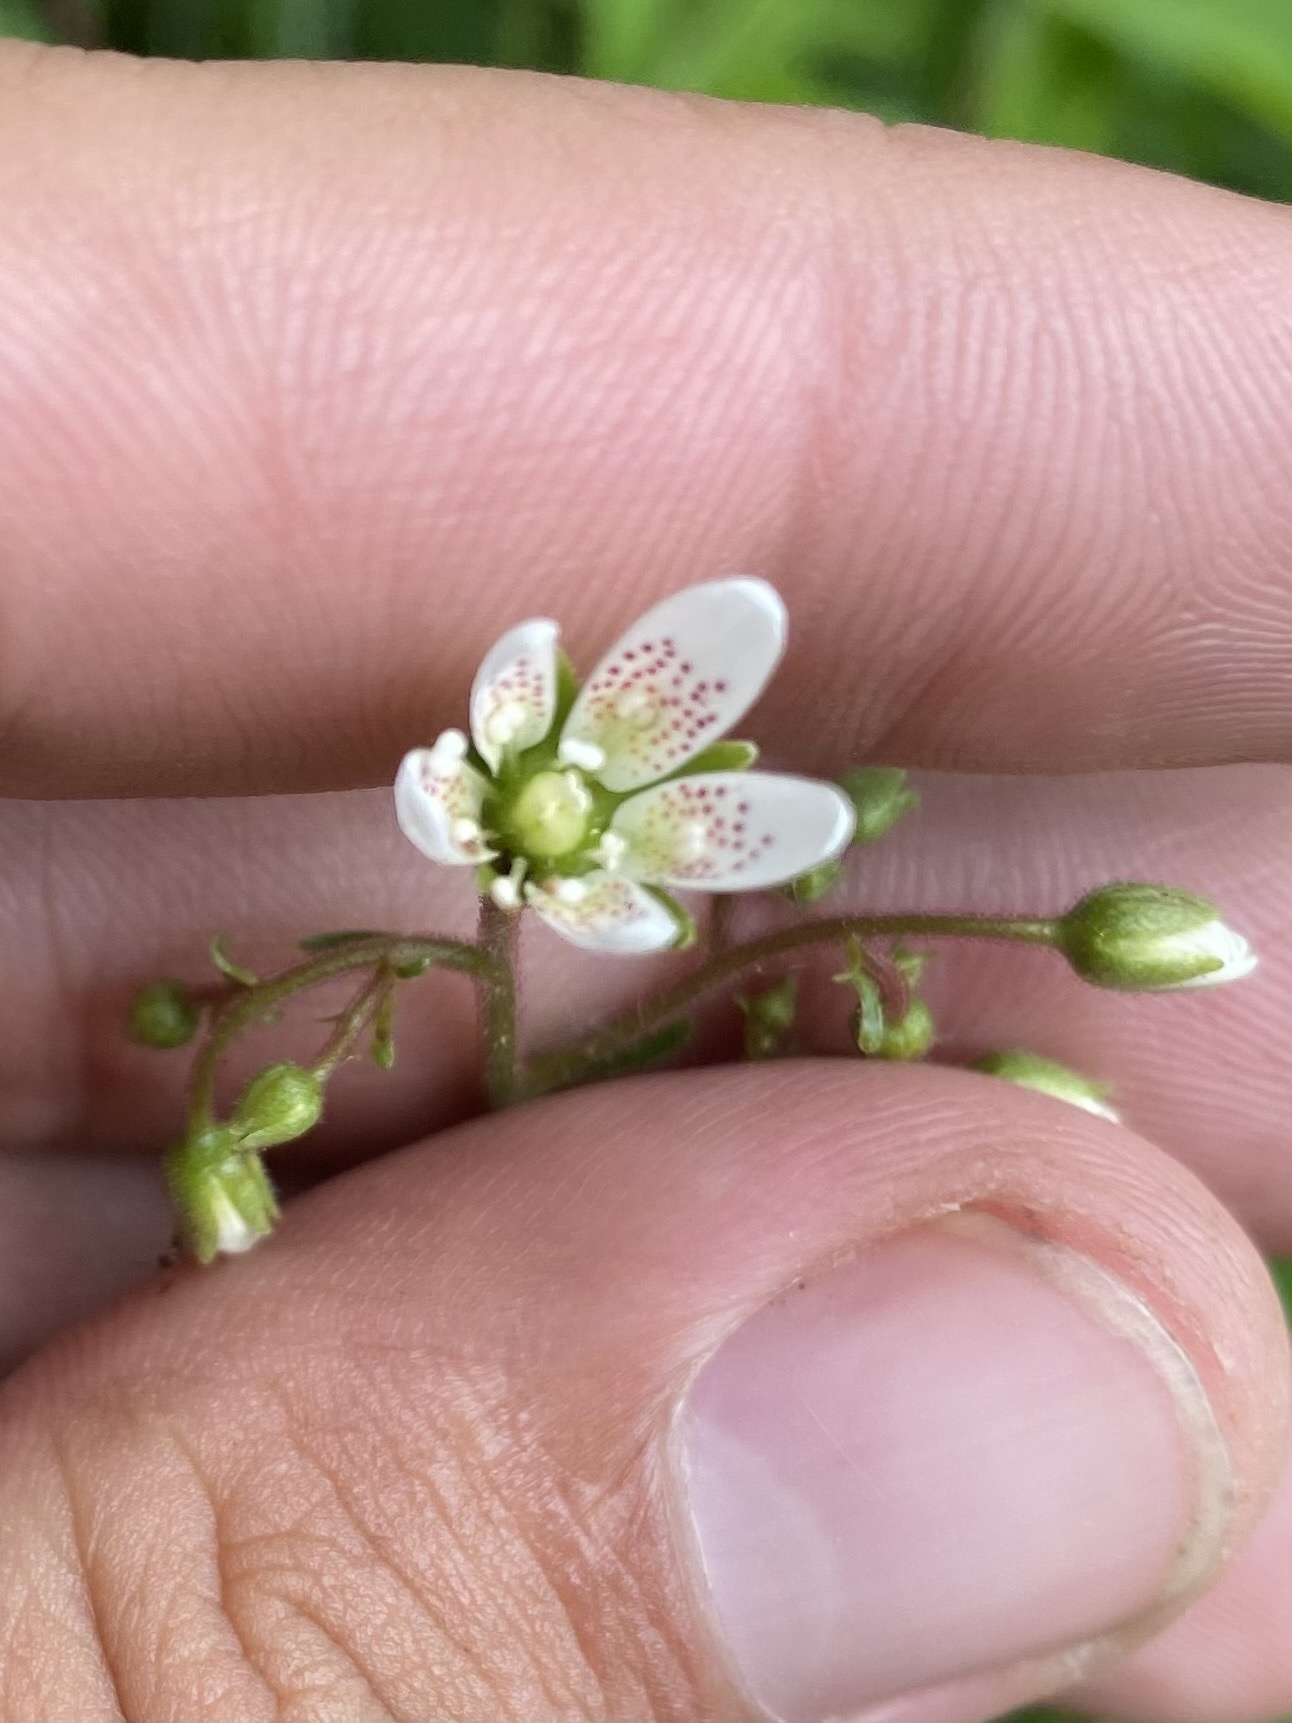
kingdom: Plantae
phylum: Tracheophyta
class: Magnoliopsida
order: Saxifragales
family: Saxifragaceae
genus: Saxifraga
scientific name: Saxifraga rotundifolia
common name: Round-leaved saxifrage
